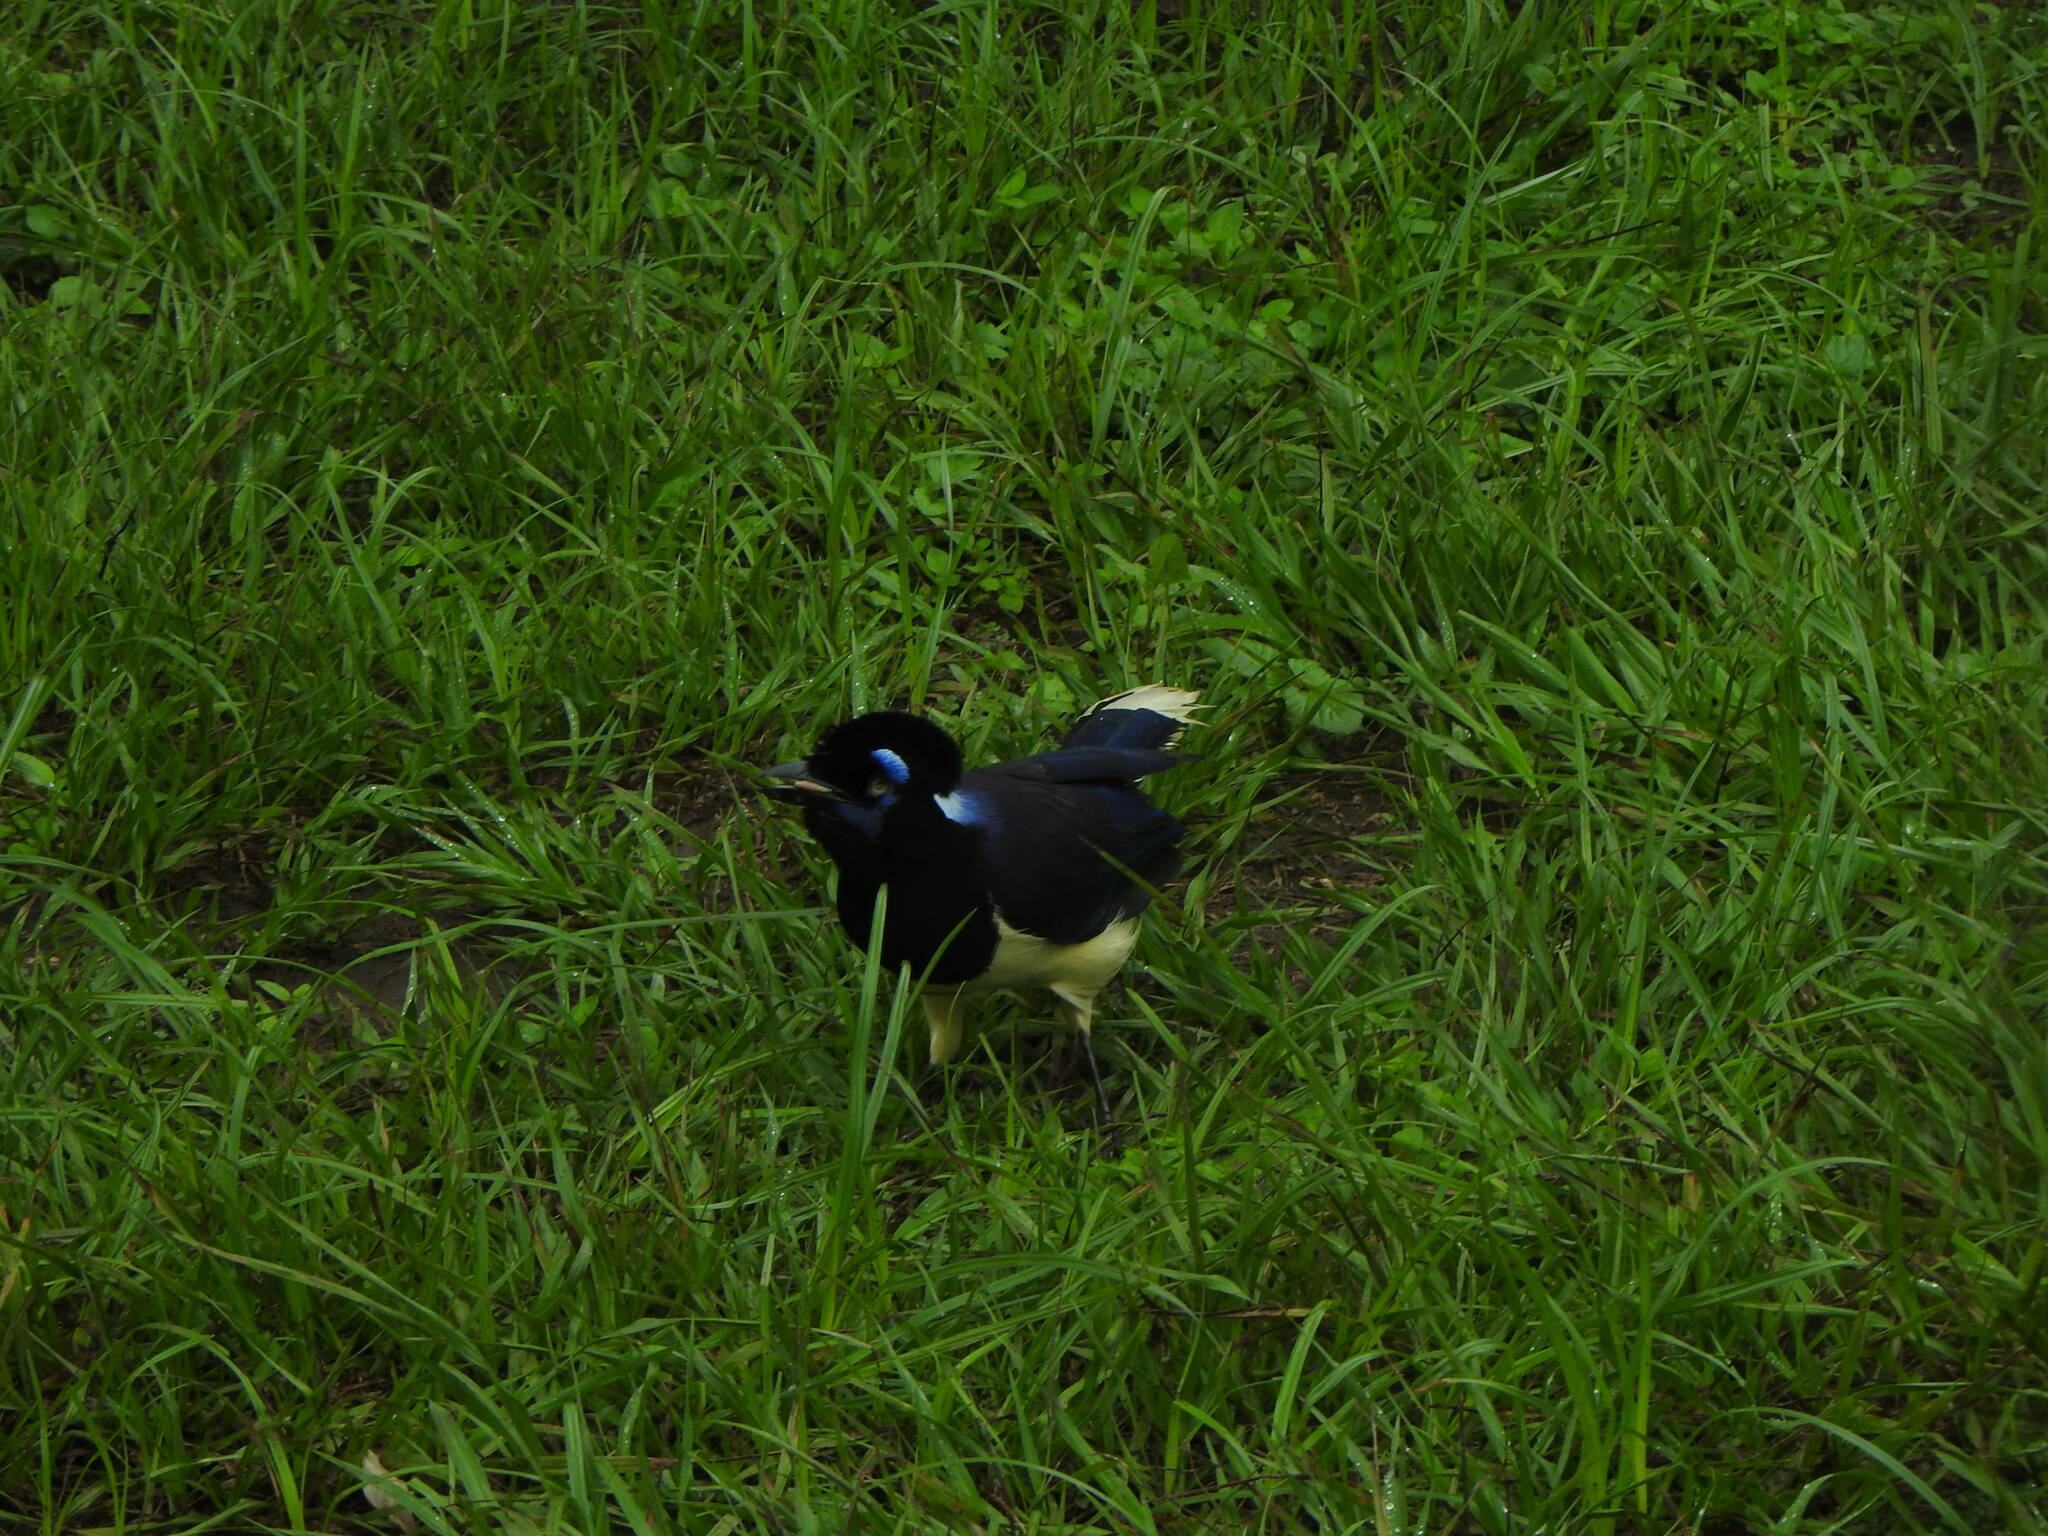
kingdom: Animalia
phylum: Chordata
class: Aves
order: Passeriformes
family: Corvidae
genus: Cyanocorax
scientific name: Cyanocorax chrysops
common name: Plush-crested jay
